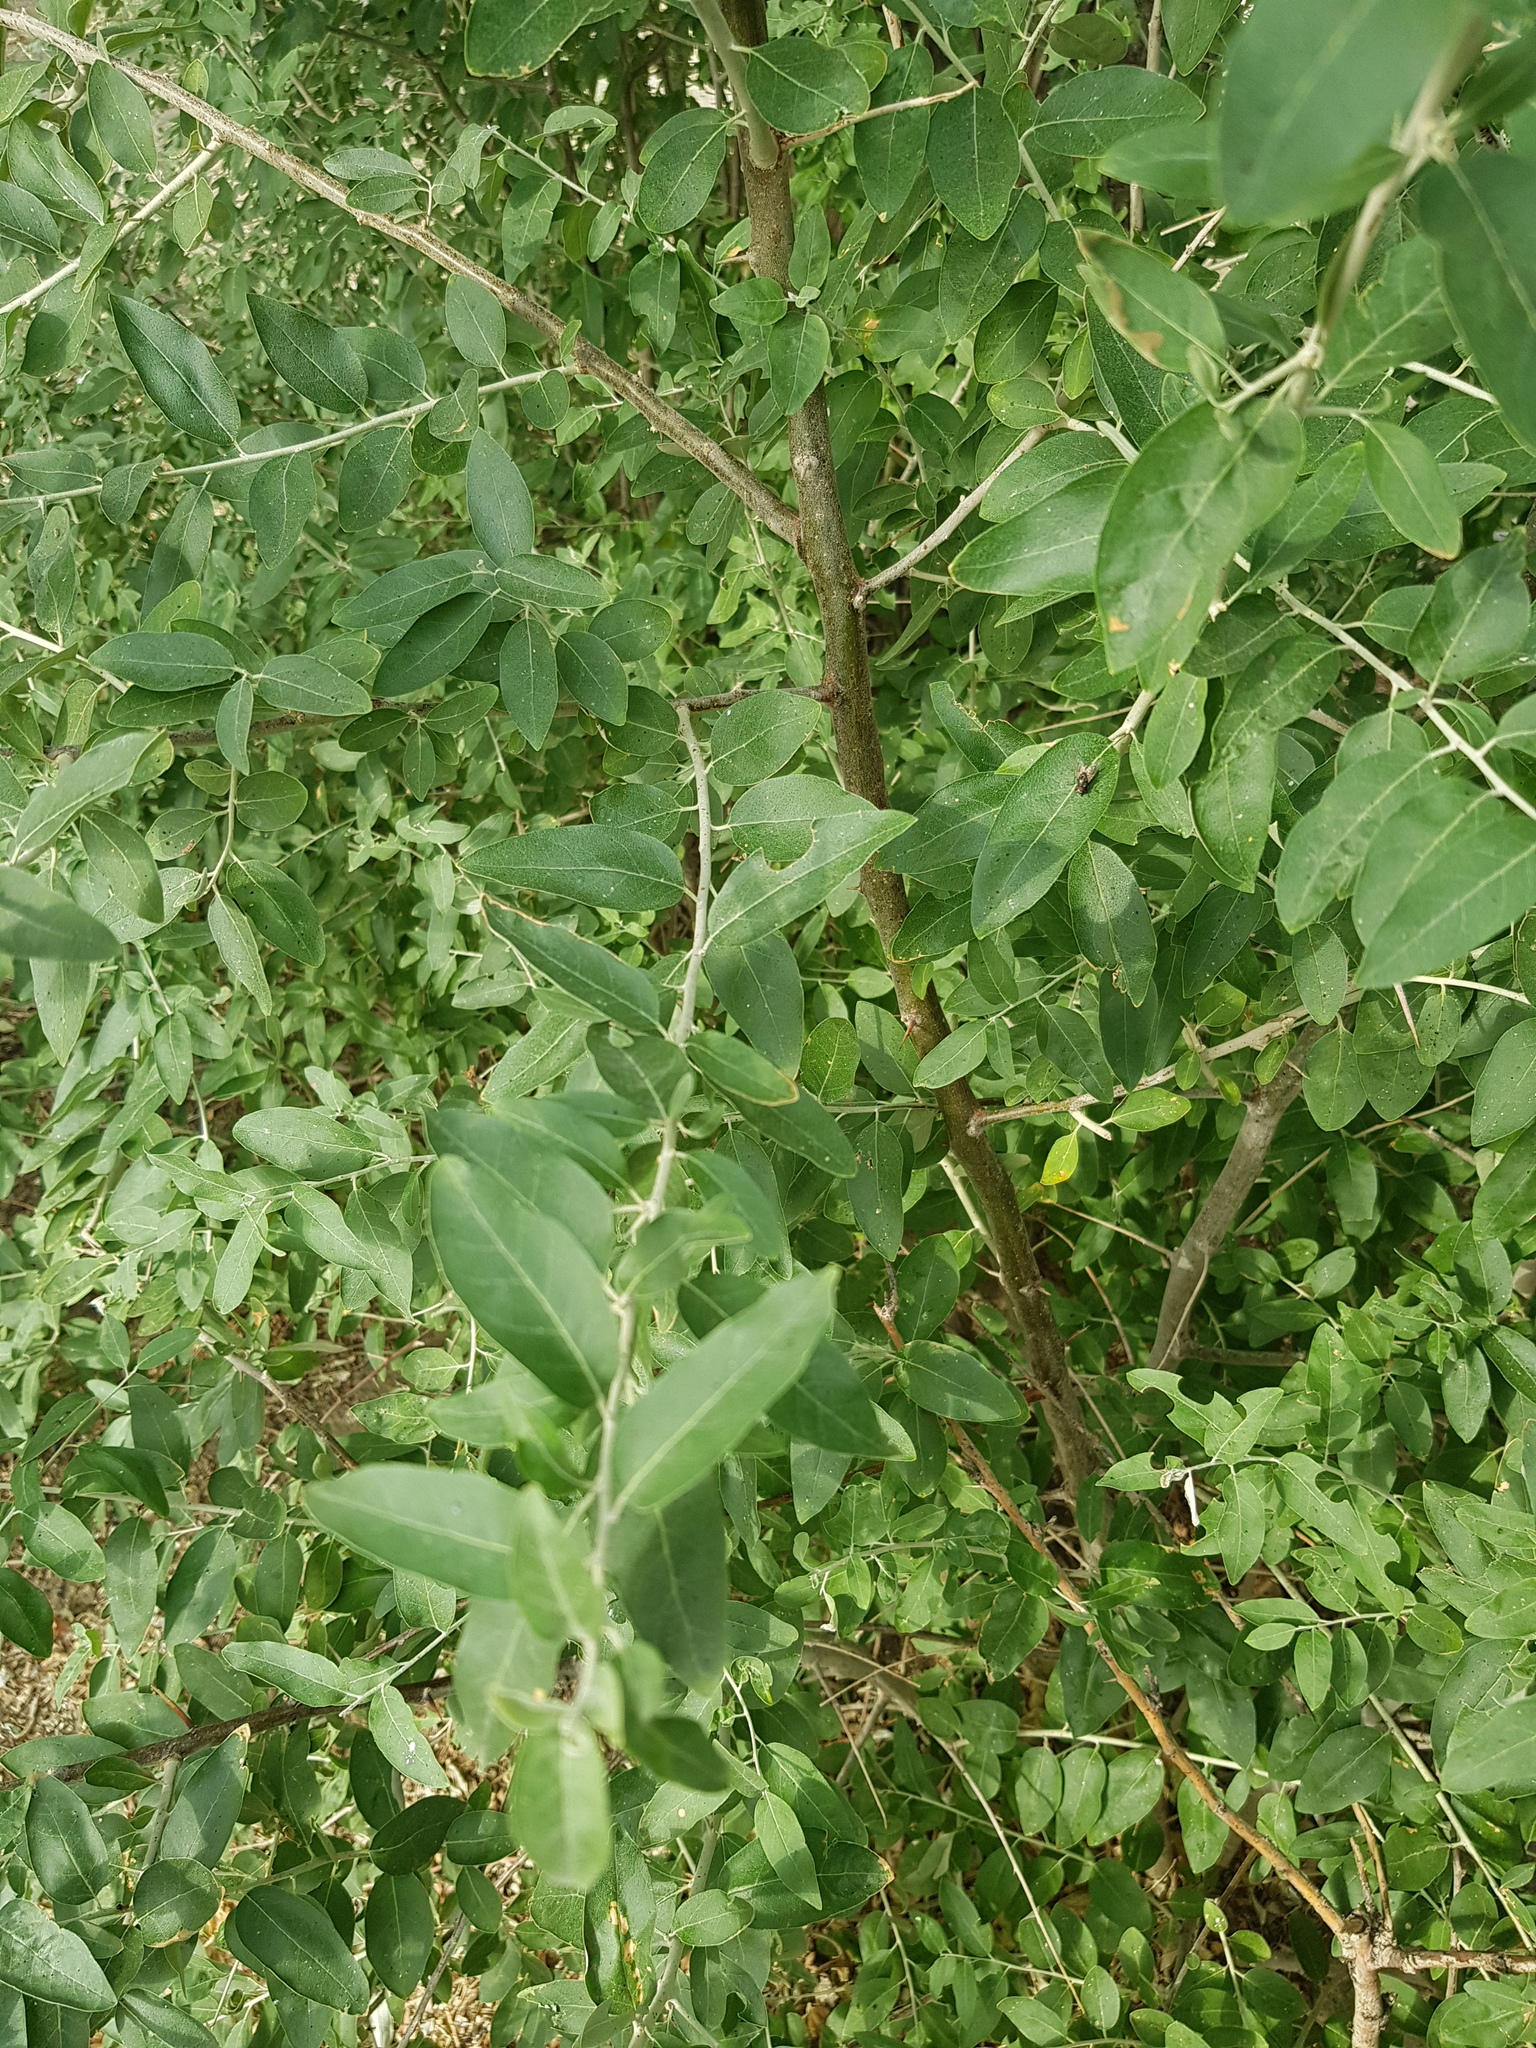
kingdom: Plantae
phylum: Tracheophyta
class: Magnoliopsida
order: Rosales
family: Elaeagnaceae
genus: Elaeagnus
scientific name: Elaeagnus angustifolia
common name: Russian olive
